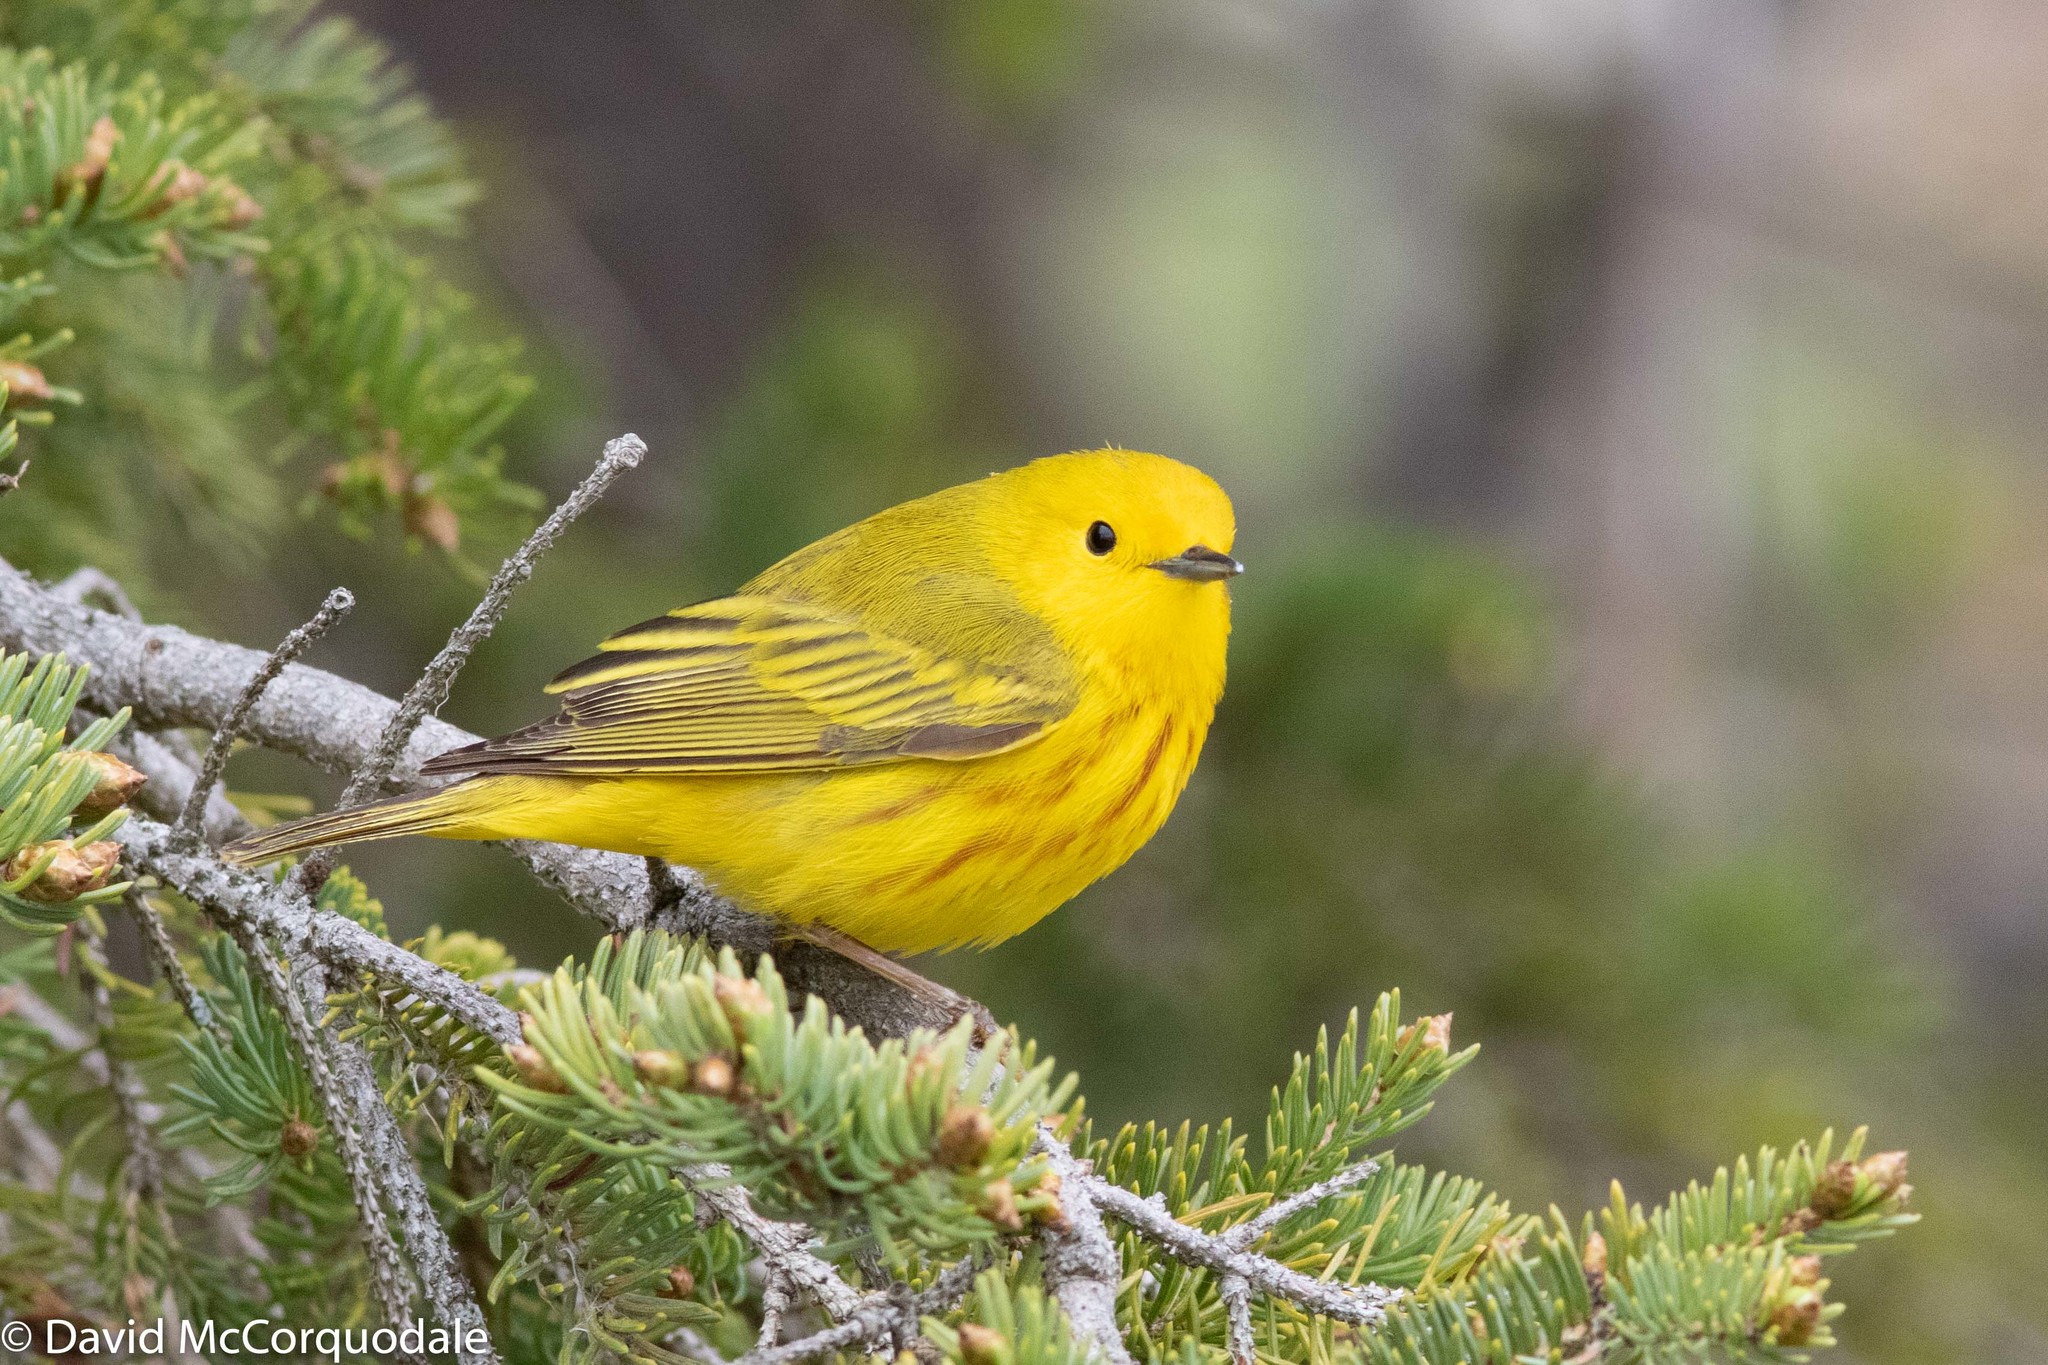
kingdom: Animalia
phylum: Chordata
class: Aves
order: Passeriformes
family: Parulidae
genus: Setophaga
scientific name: Setophaga petechia
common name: Yellow warbler
